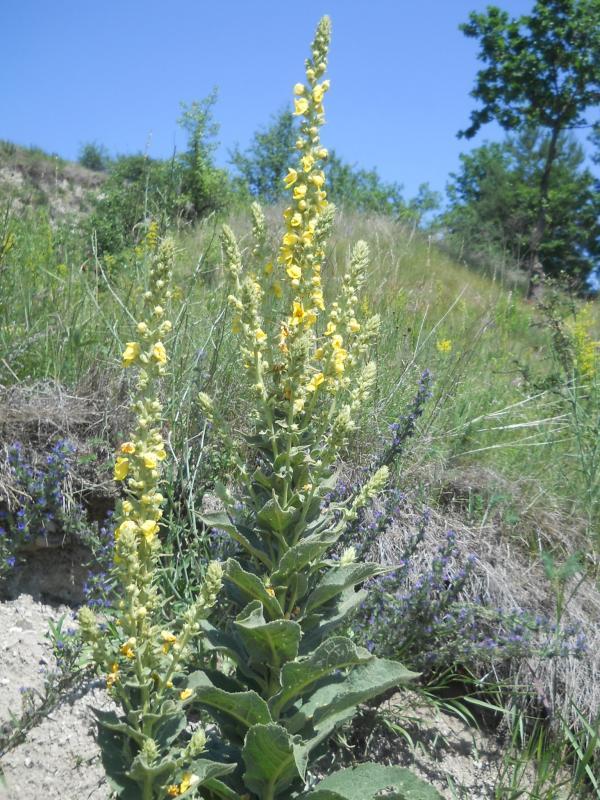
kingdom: Plantae
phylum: Tracheophyta
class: Magnoliopsida
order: Lamiales
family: Scrophulariaceae
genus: Verbascum
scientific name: Verbascum phlomoides
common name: Orange mullein
